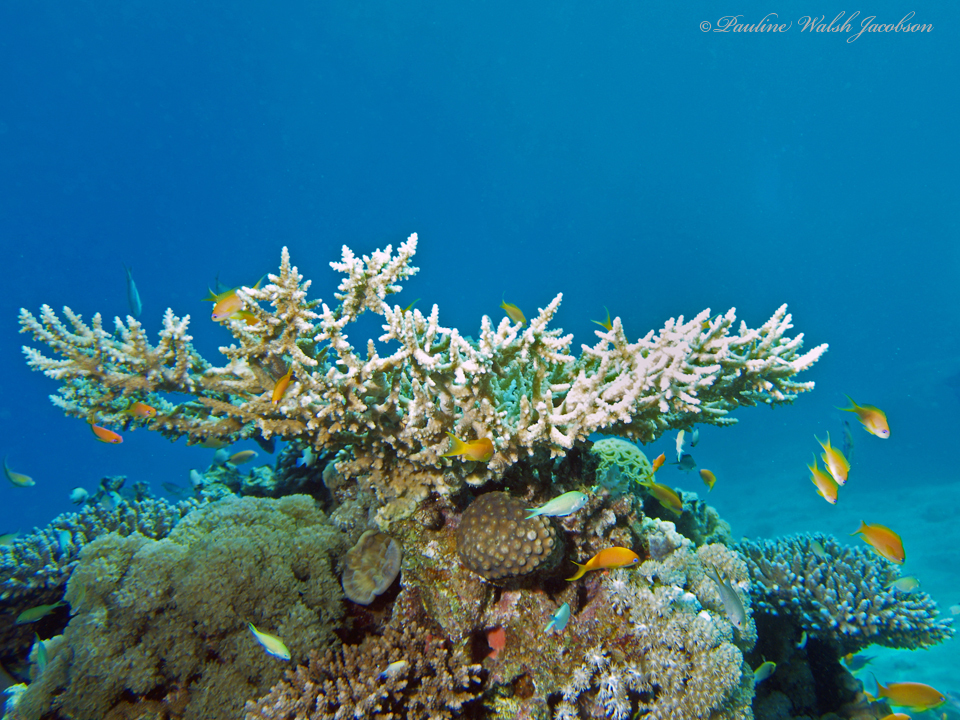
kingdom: Animalia
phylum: Chordata
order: Perciformes
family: Serranidae
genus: Pseudanthias
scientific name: Pseudanthias squamipinnis
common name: Scalefin anthias
